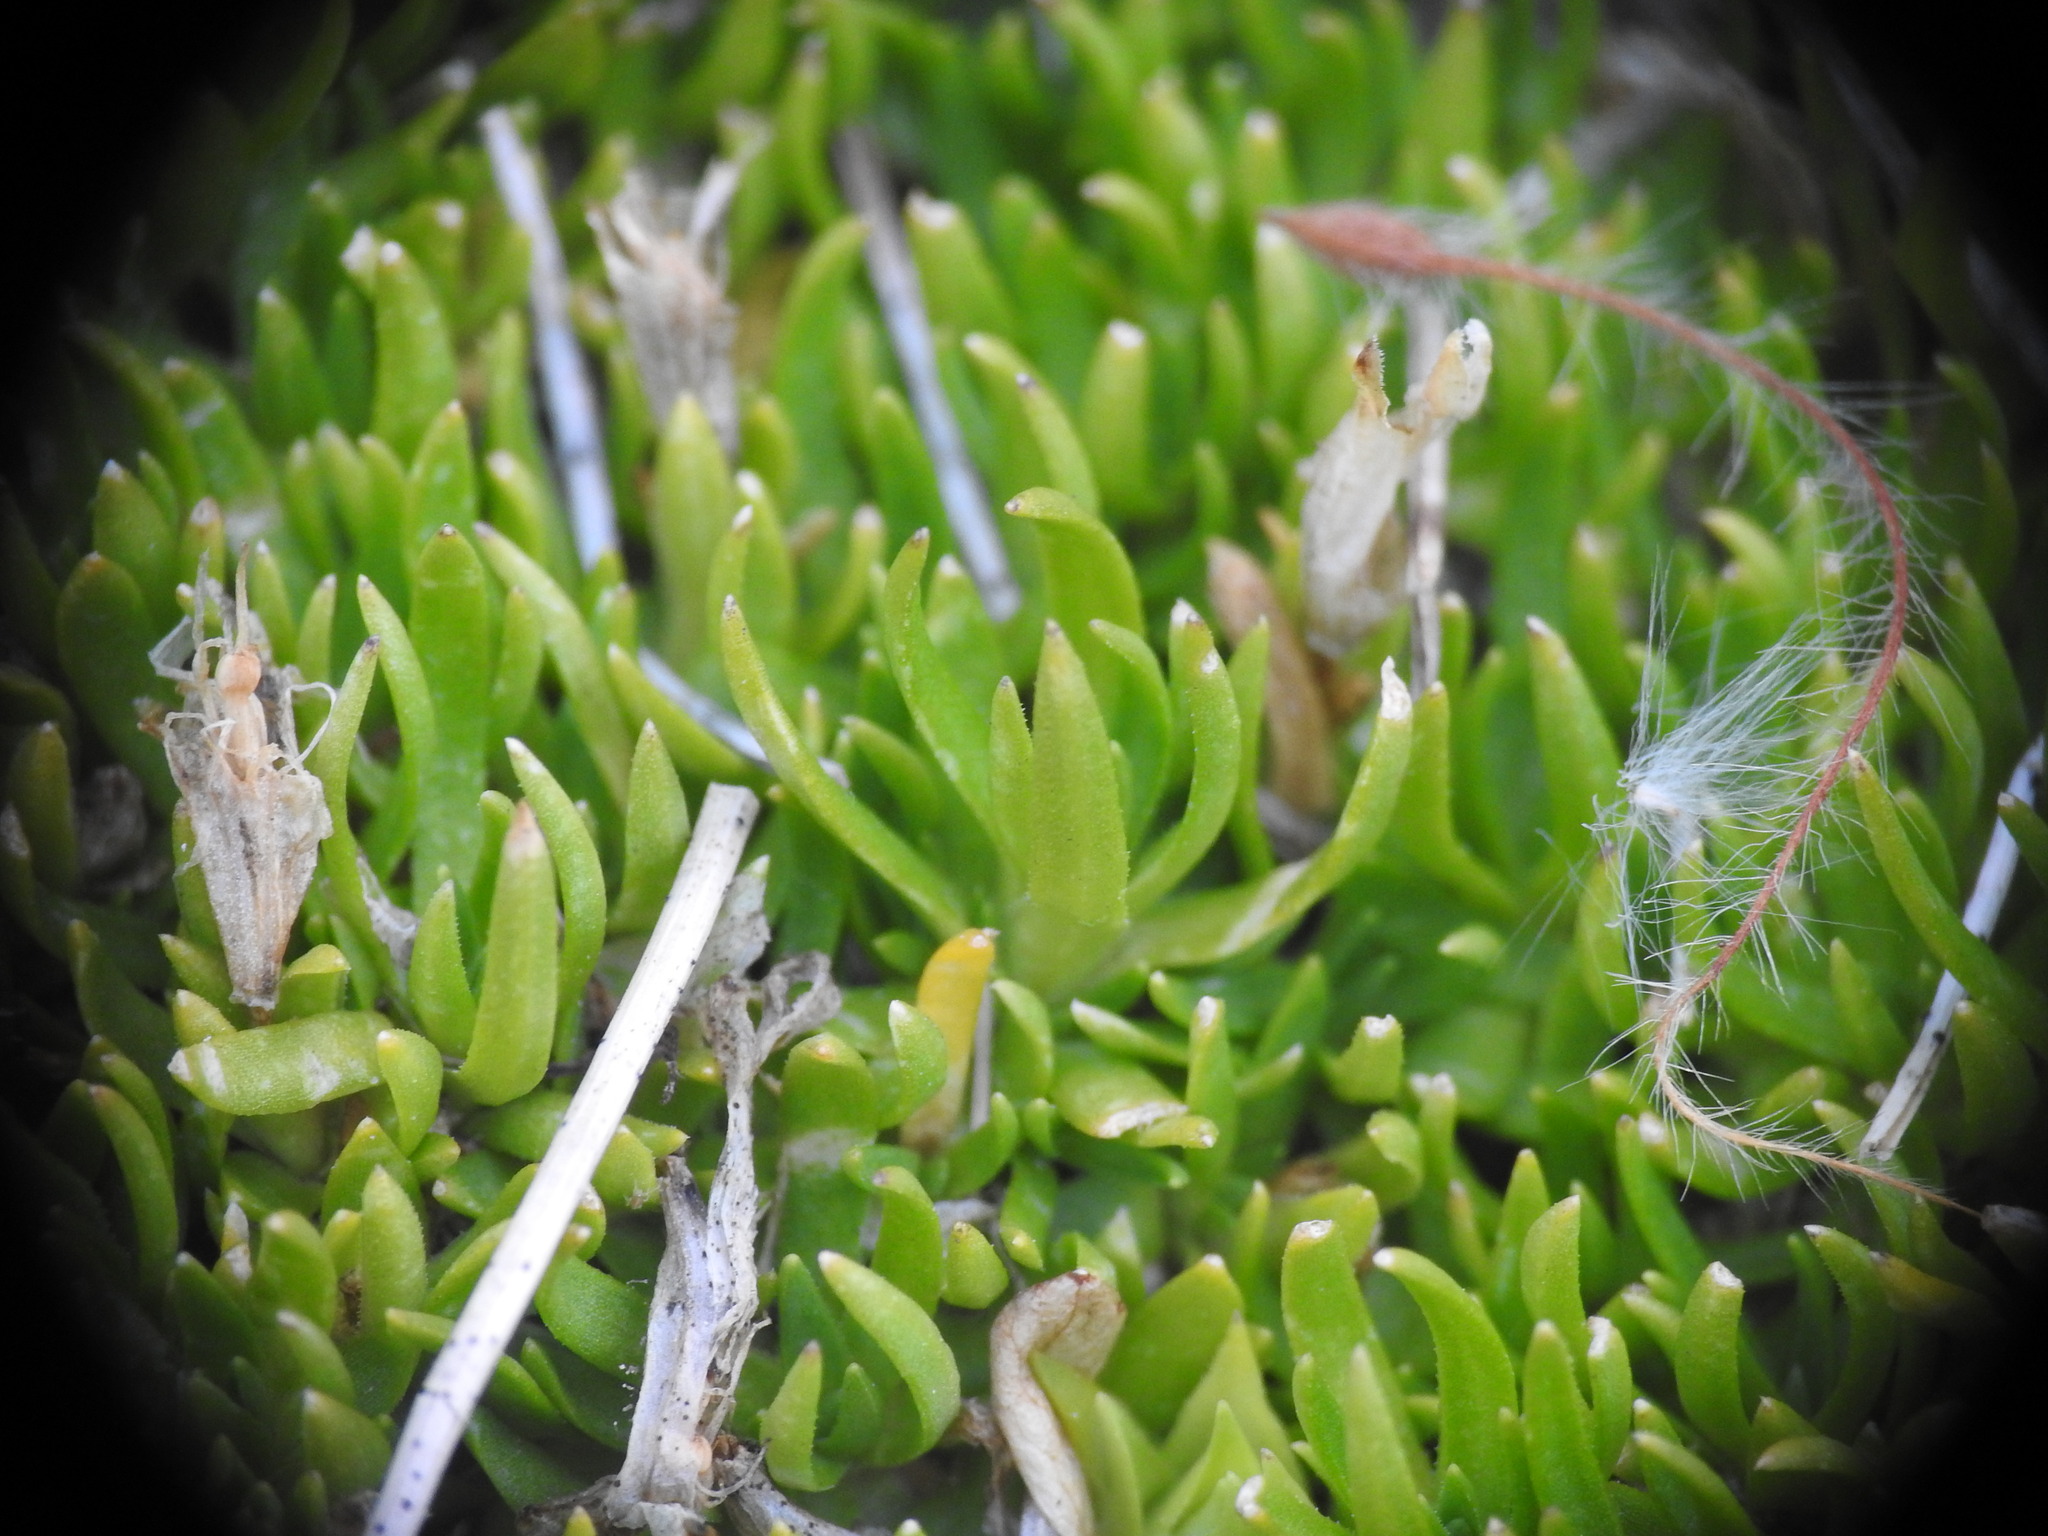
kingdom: Plantae
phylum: Tracheophyta
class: Magnoliopsida
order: Caryophyllales
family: Caryophyllaceae
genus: Silene
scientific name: Silene acaulis
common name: Moss campion
